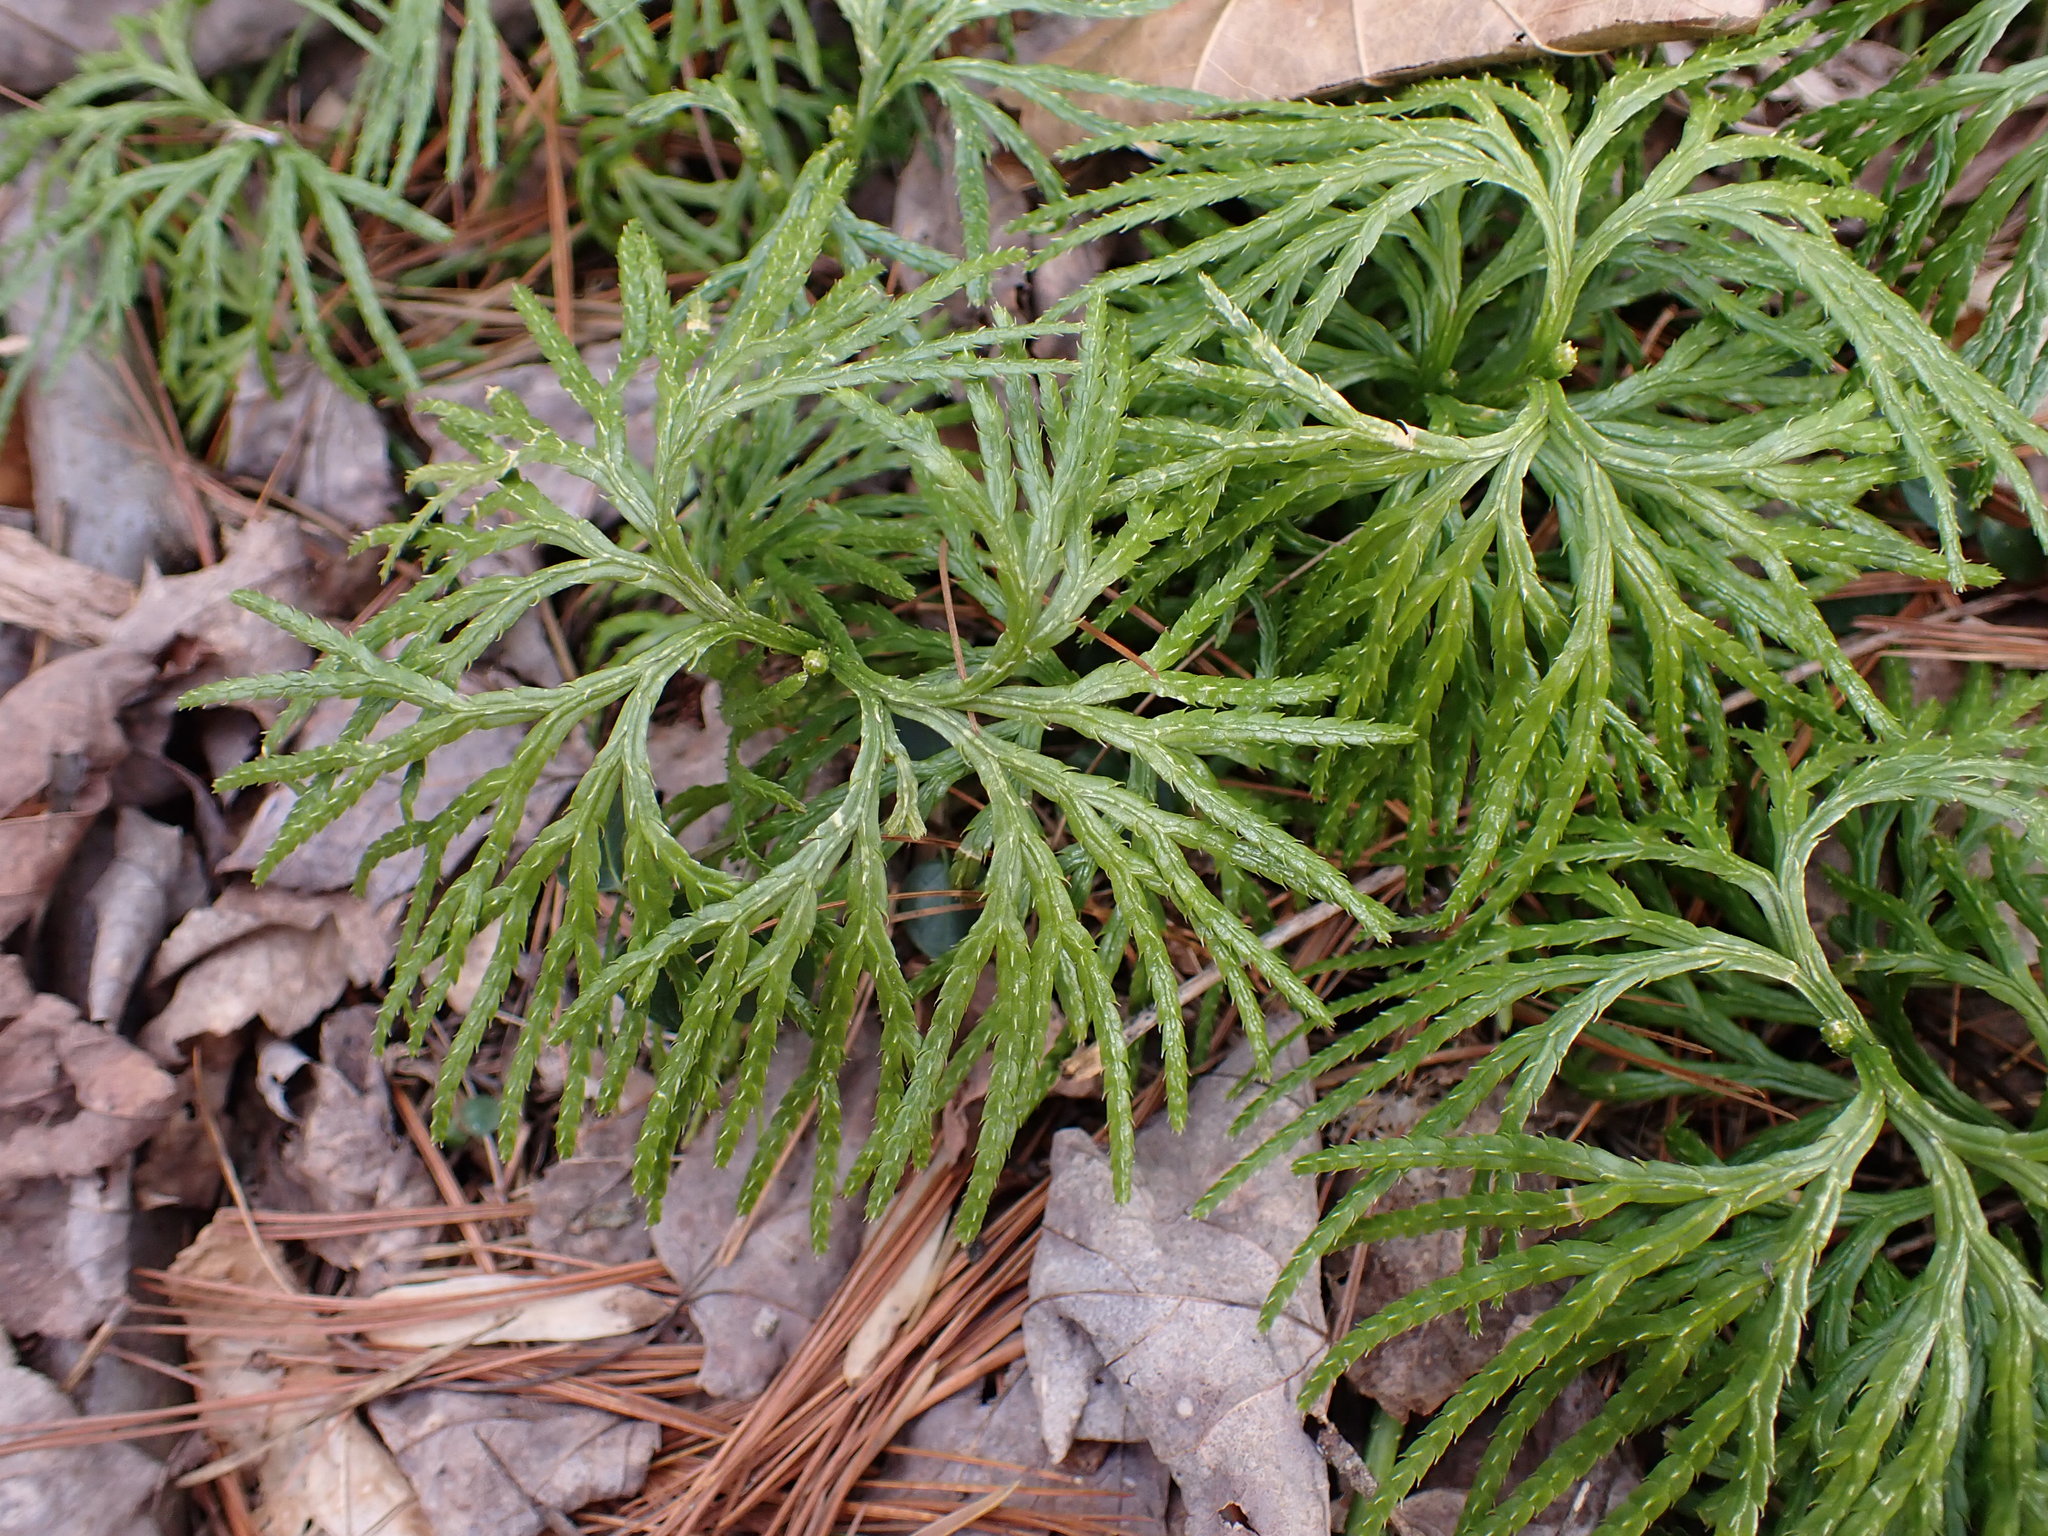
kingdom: Plantae
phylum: Tracheophyta
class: Lycopodiopsida
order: Lycopodiales
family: Lycopodiaceae
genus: Diphasiastrum
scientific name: Diphasiastrum digitatum
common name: Southern running-pine
